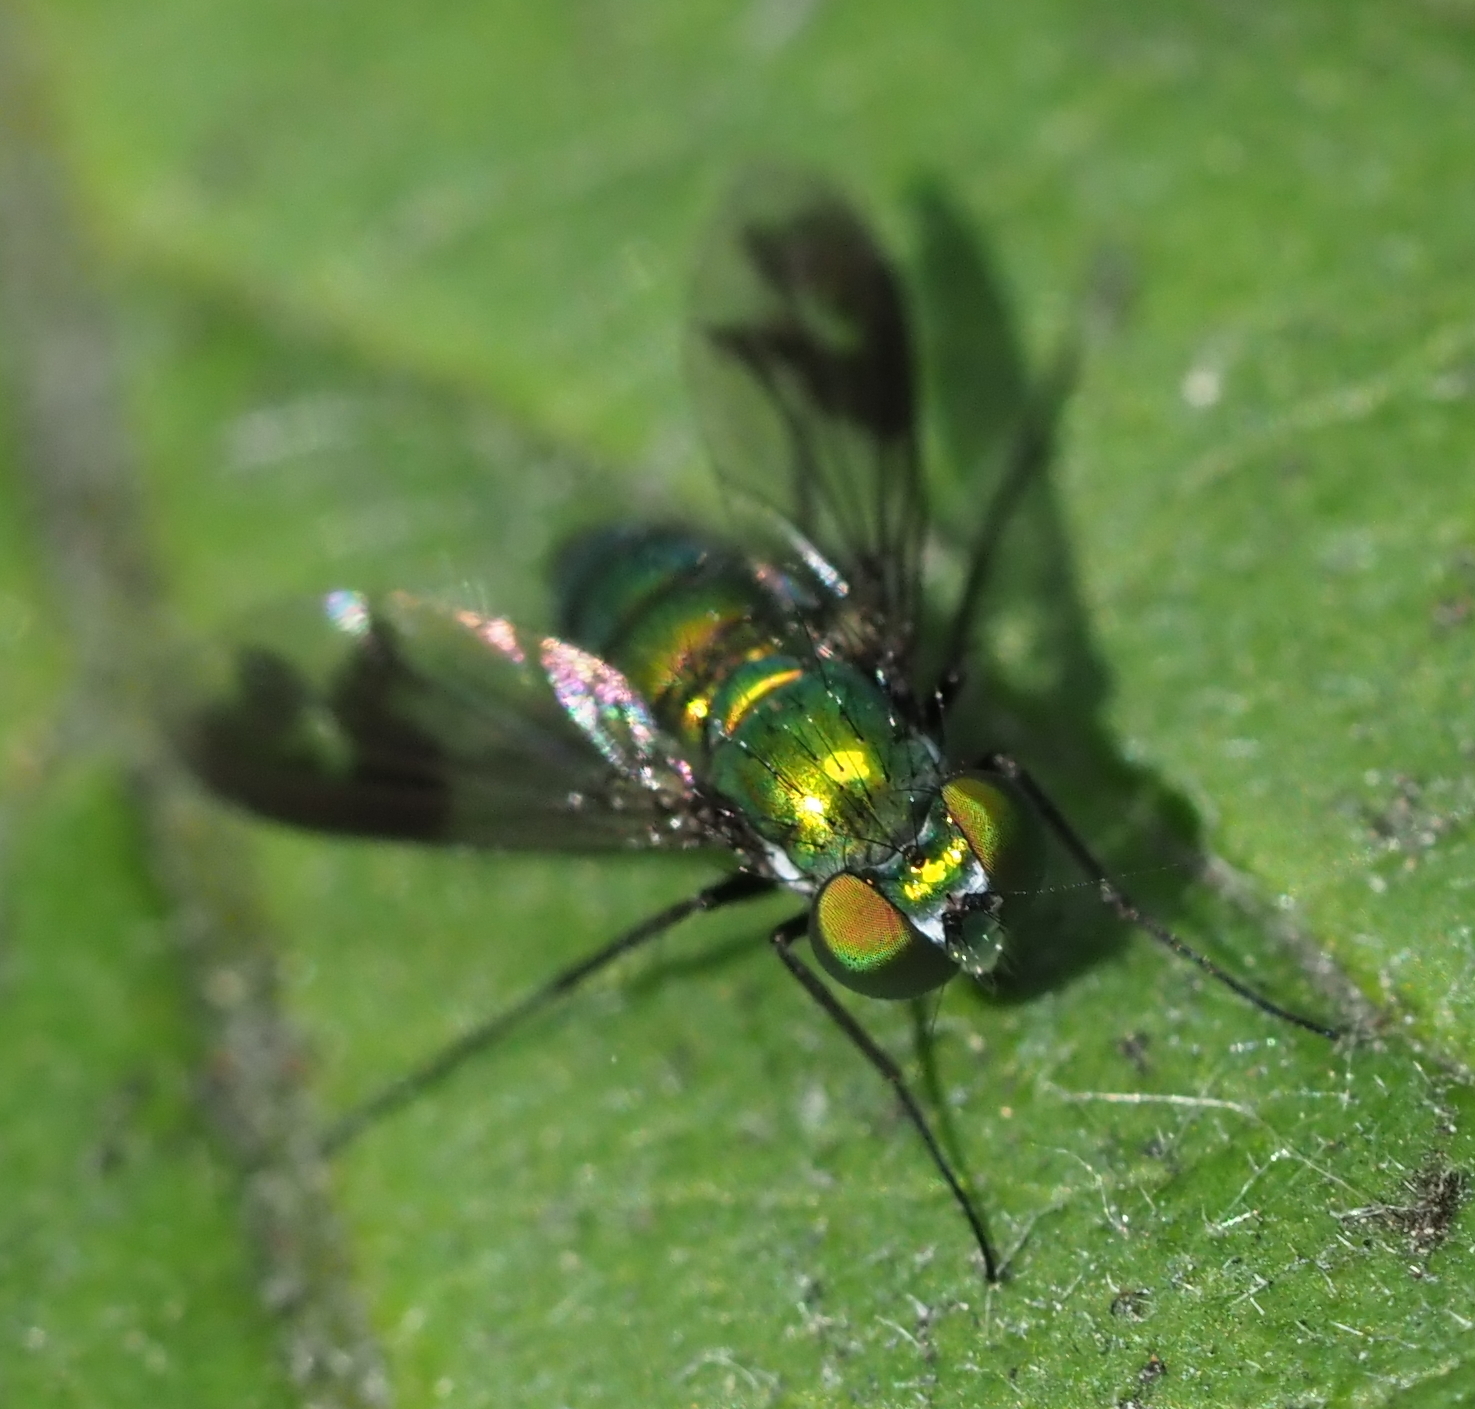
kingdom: Animalia
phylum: Arthropoda
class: Insecta
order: Diptera
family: Dolichopodidae
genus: Condylostylus
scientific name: Condylostylus patibulatus
